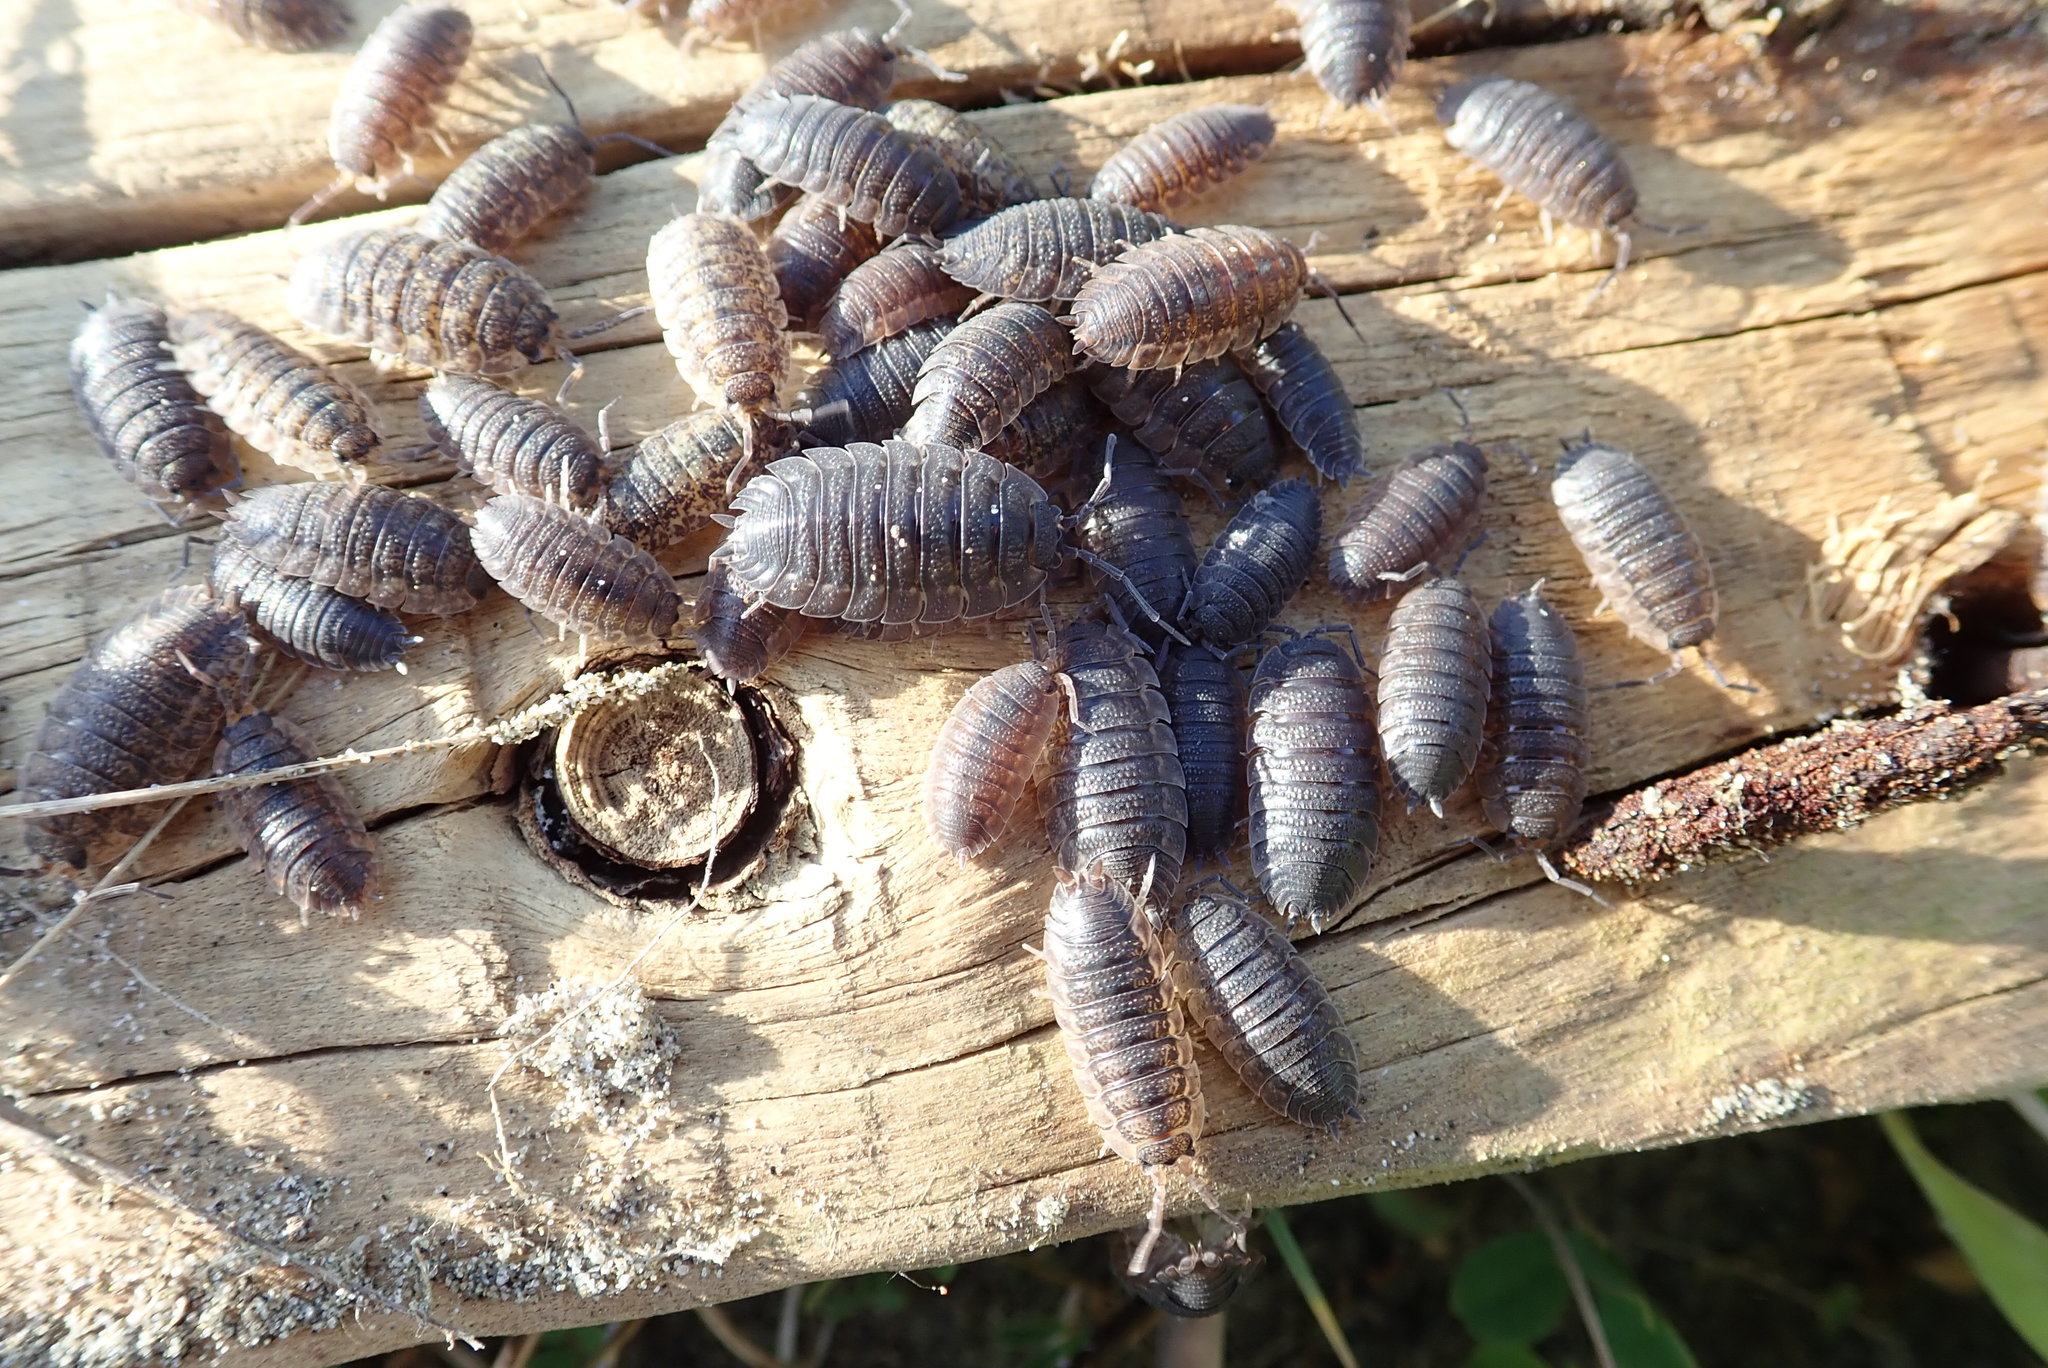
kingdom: Animalia
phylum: Arthropoda
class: Malacostraca
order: Isopoda
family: Porcellionidae
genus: Porcellio
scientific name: Porcellio scaber
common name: Common rough woodlouse
